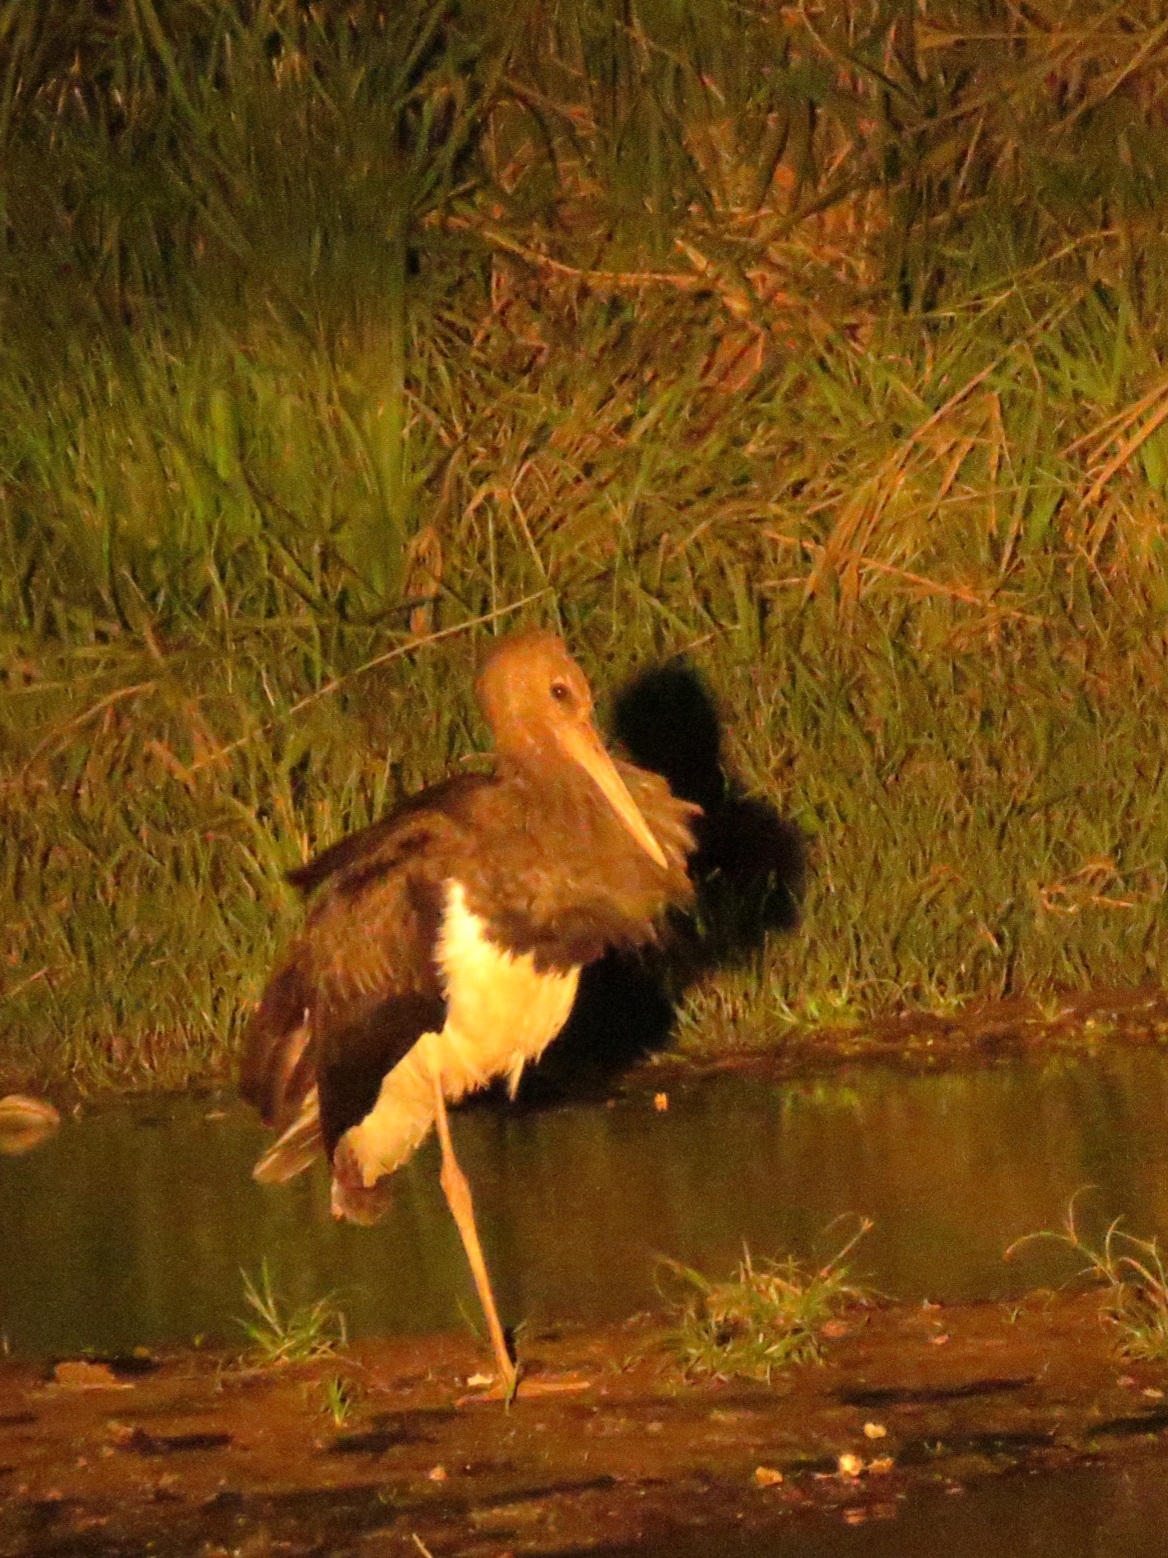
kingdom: Animalia
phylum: Chordata
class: Aves
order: Ciconiiformes
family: Ciconiidae
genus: Ciconia
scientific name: Ciconia nigra
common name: Black stork
